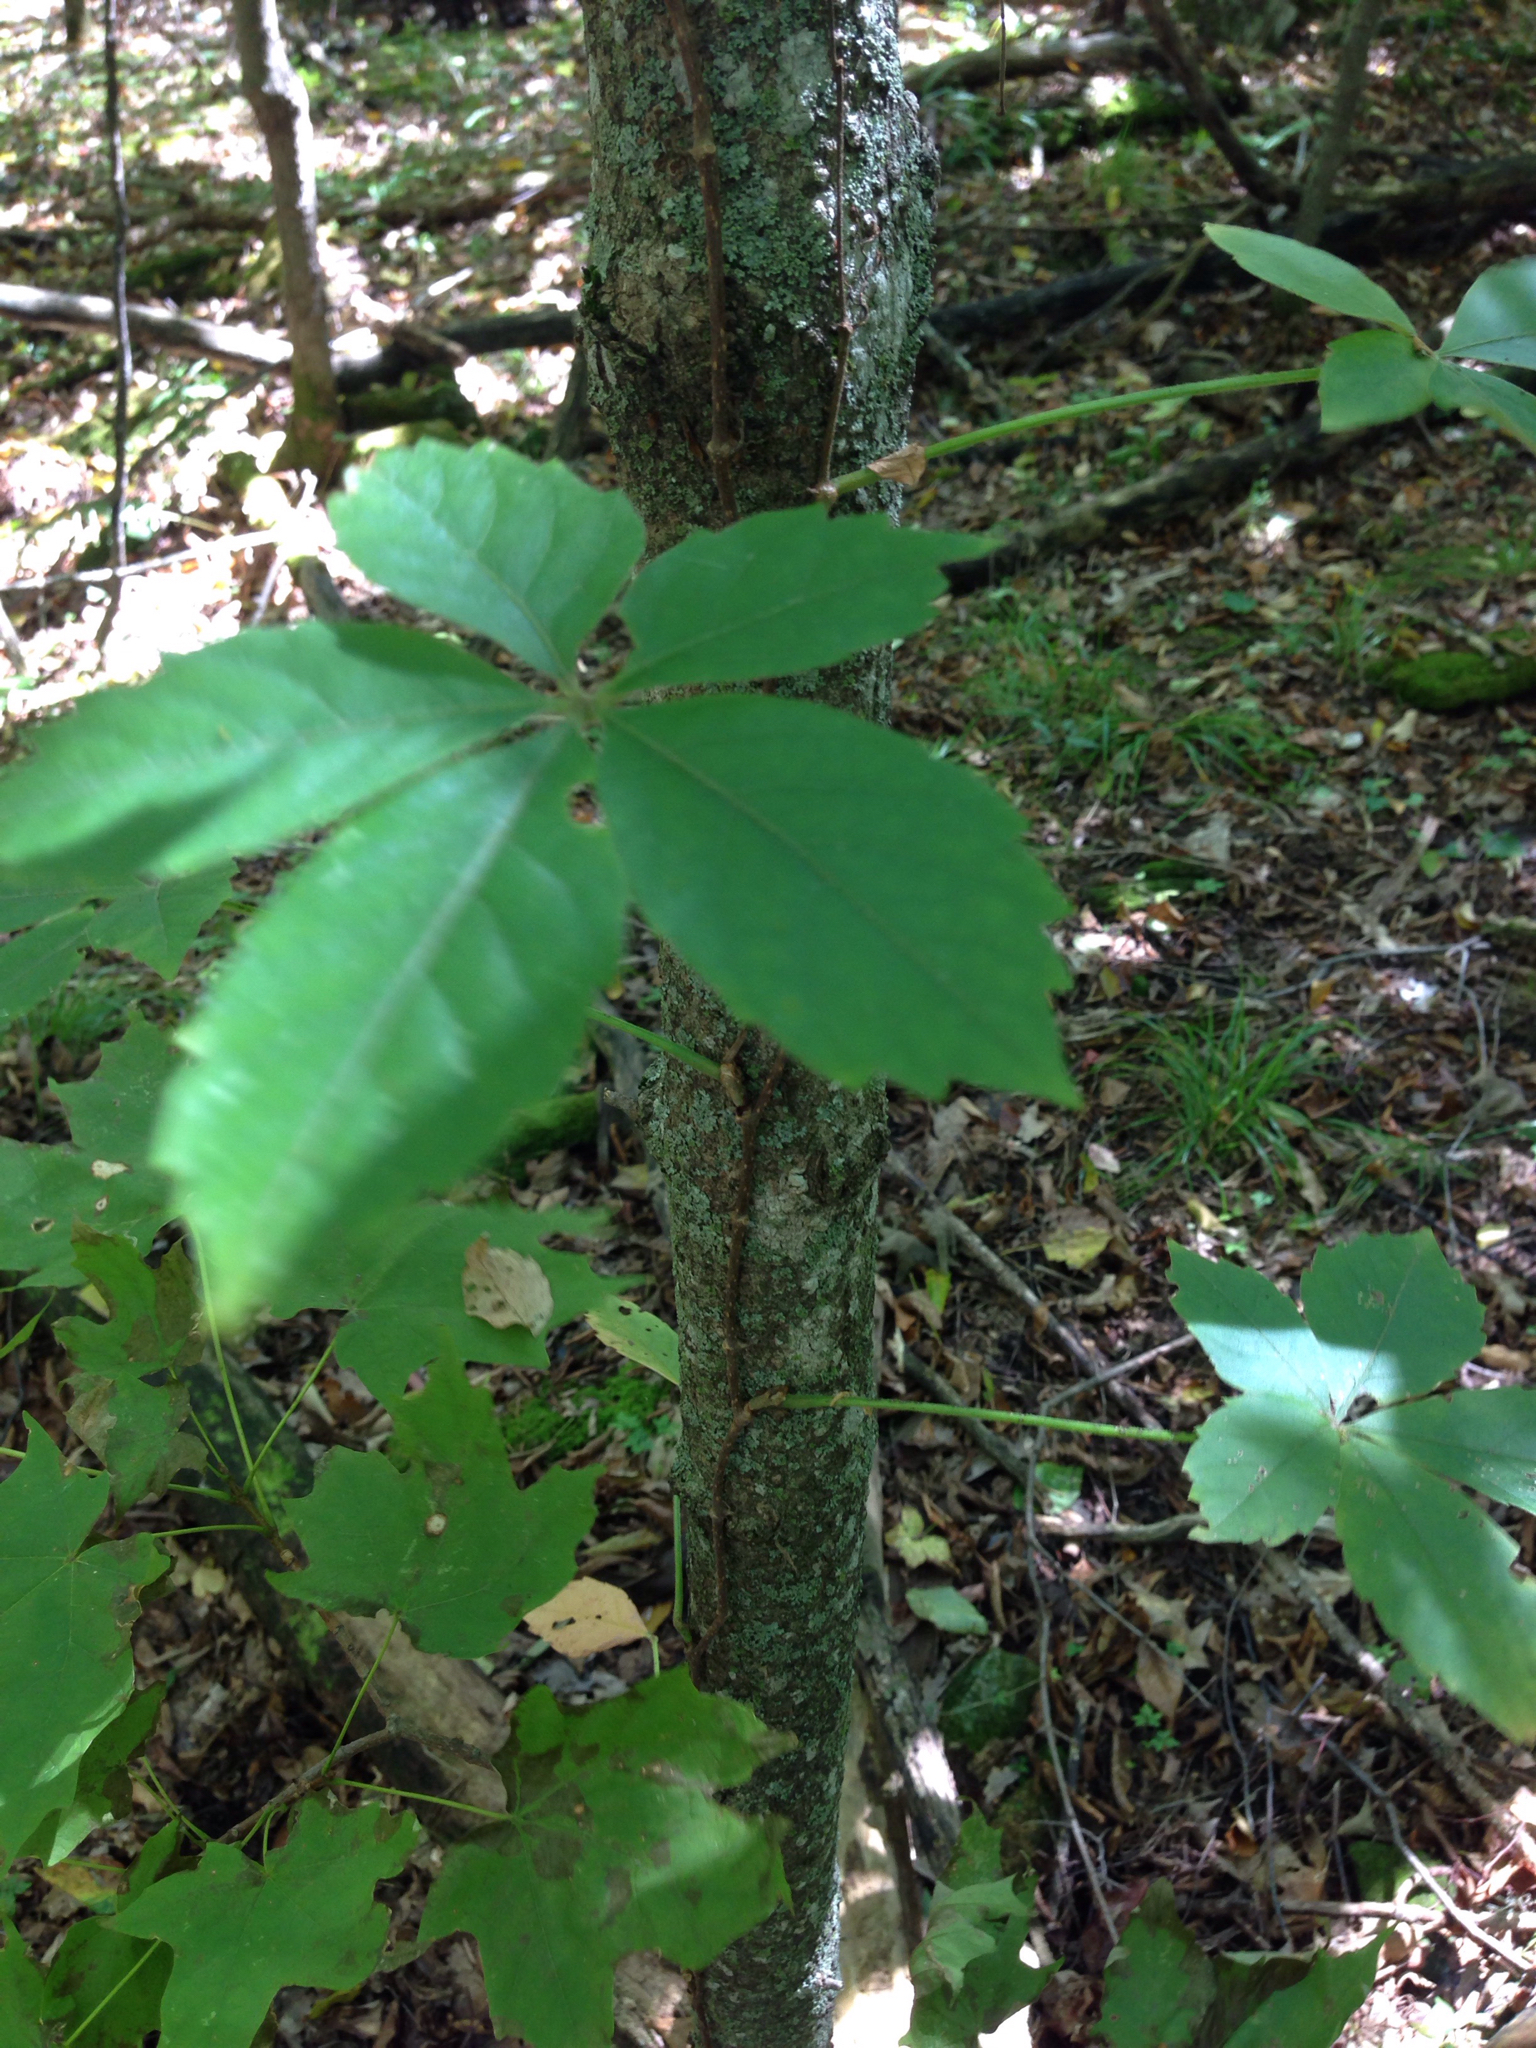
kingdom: Plantae
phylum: Tracheophyta
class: Magnoliopsida
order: Vitales
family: Vitaceae
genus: Parthenocissus
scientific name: Parthenocissus quinquefolia
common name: Virginia-creeper
